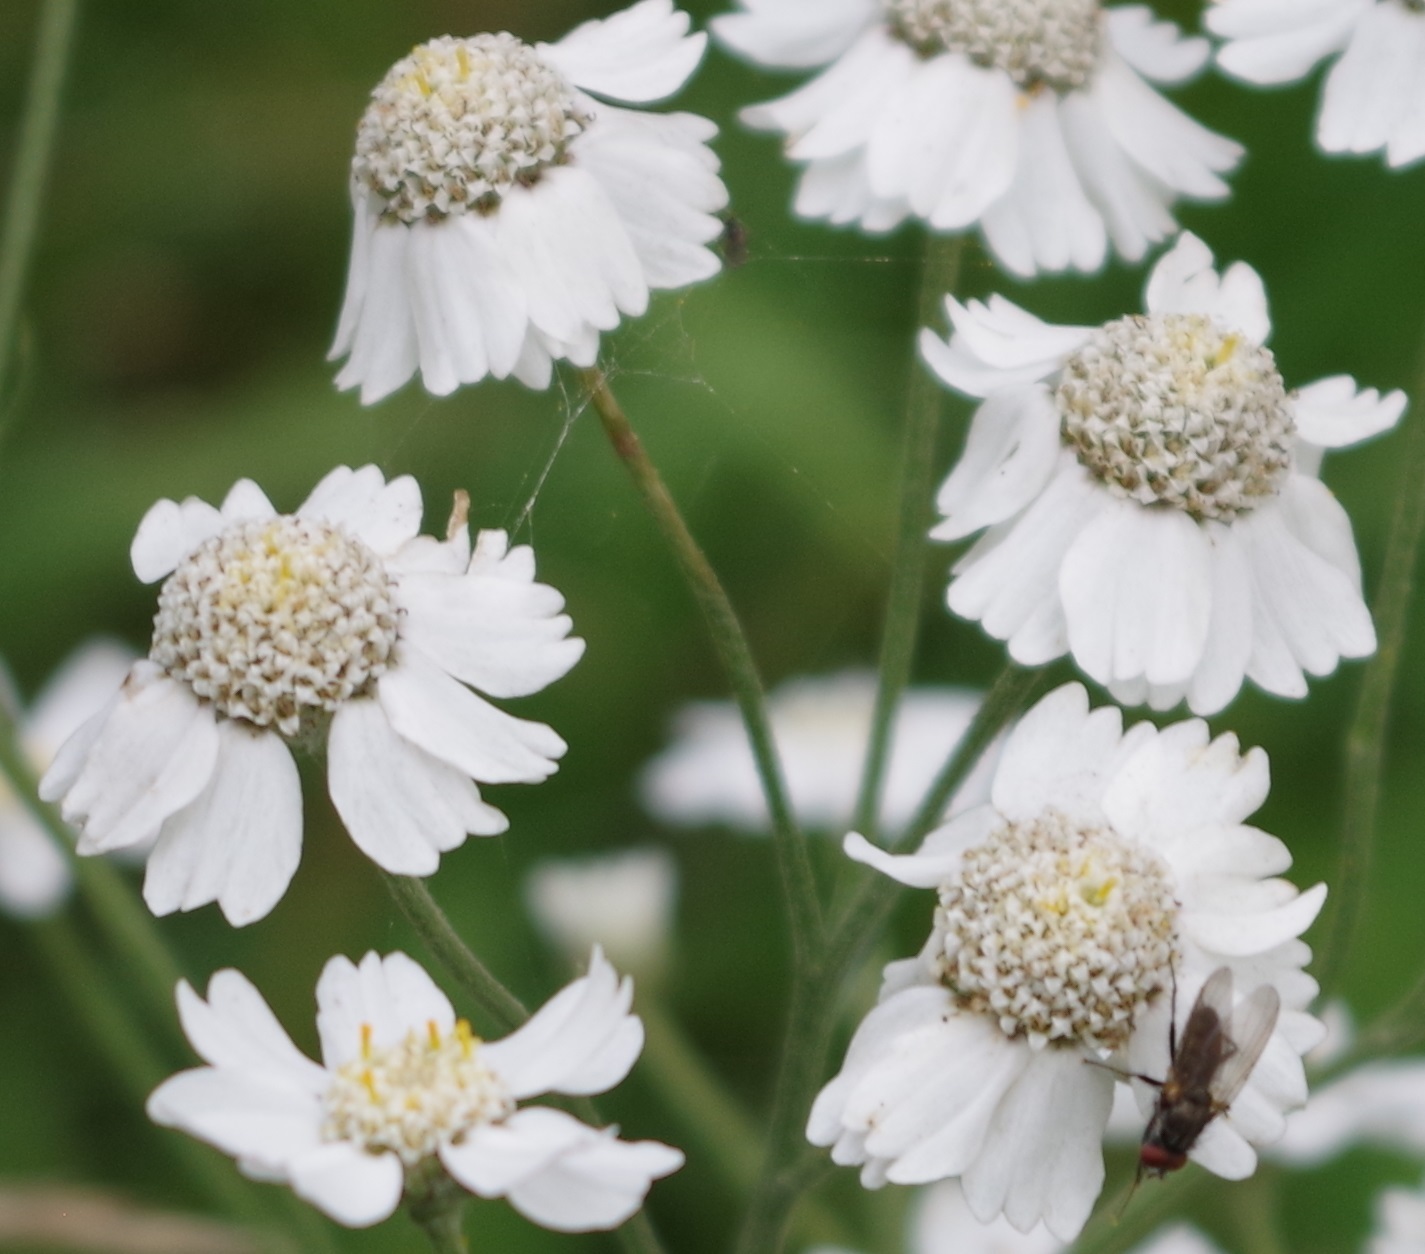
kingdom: Plantae
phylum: Tracheophyta
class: Magnoliopsida
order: Asterales
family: Asteraceae
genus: Achillea
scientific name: Achillea ptarmica
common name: Sneezeweed
